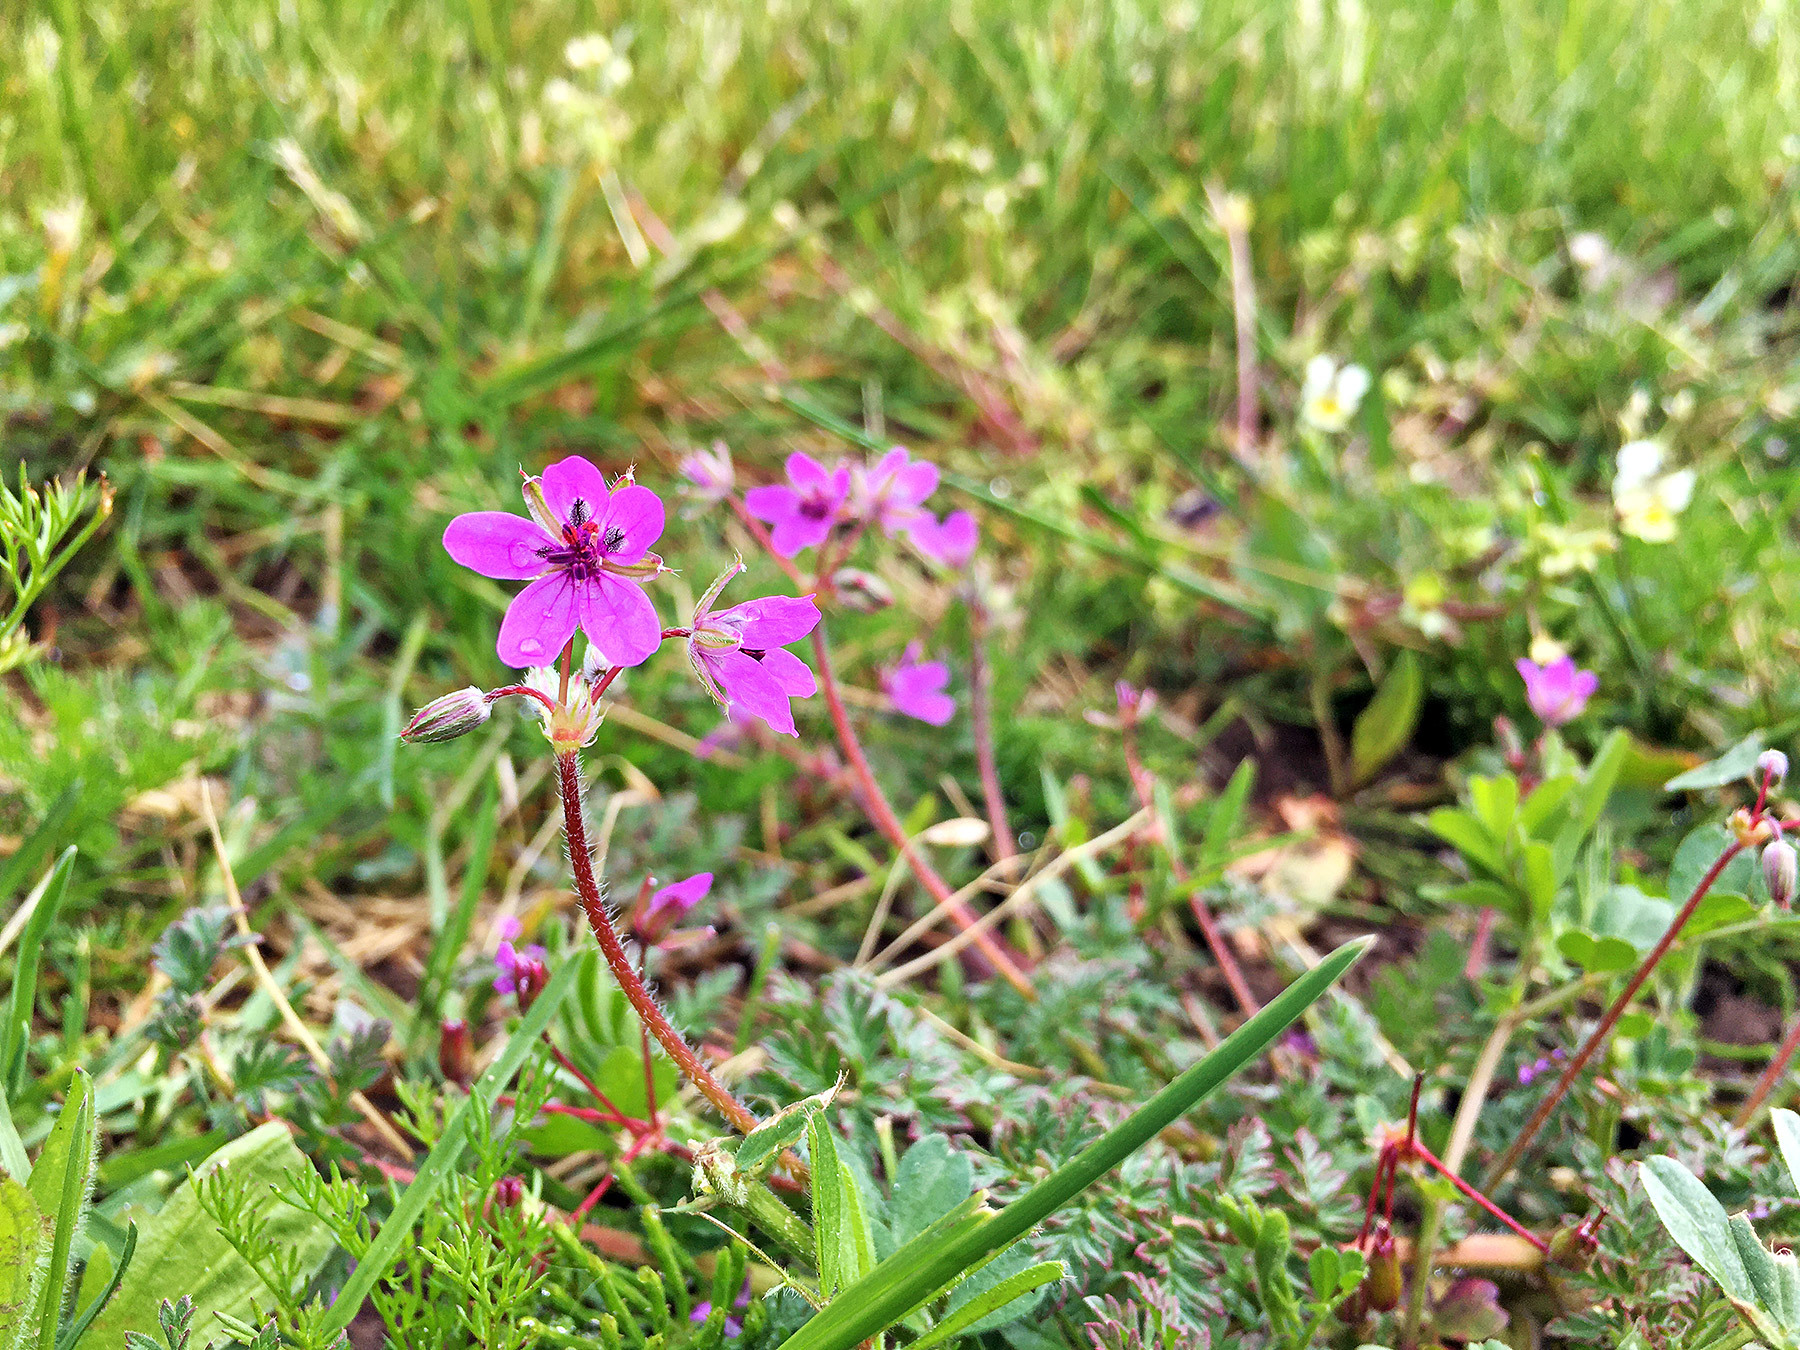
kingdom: Plantae
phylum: Tracheophyta
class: Magnoliopsida
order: Geraniales
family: Geraniaceae
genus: Erodium
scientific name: Erodium cicutarium
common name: Common stork's-bill
